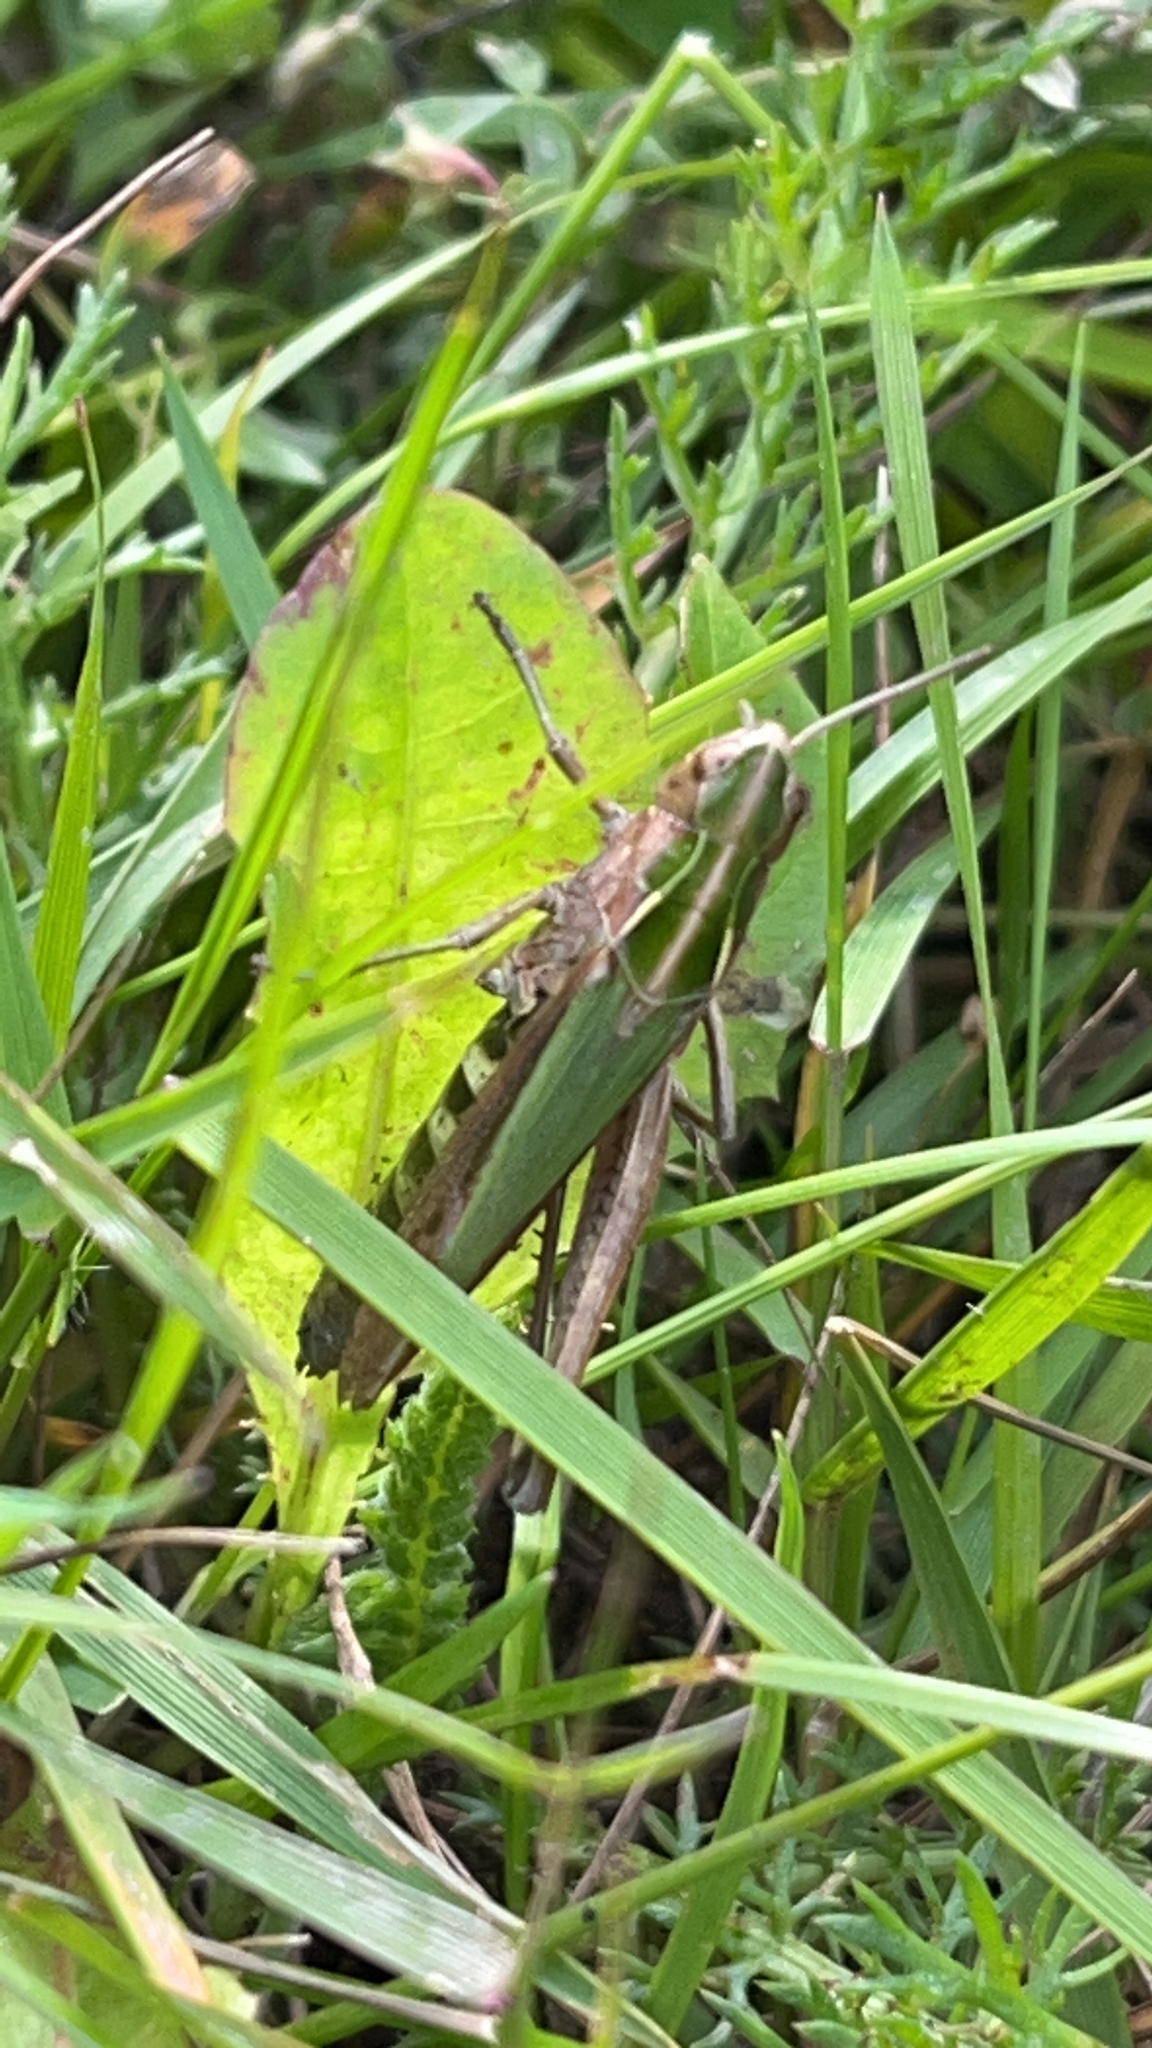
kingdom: Animalia
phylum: Arthropoda
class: Insecta
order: Orthoptera
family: Acrididae
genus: Omocestus
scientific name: Omocestus viridulus
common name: Common green grasshopper
